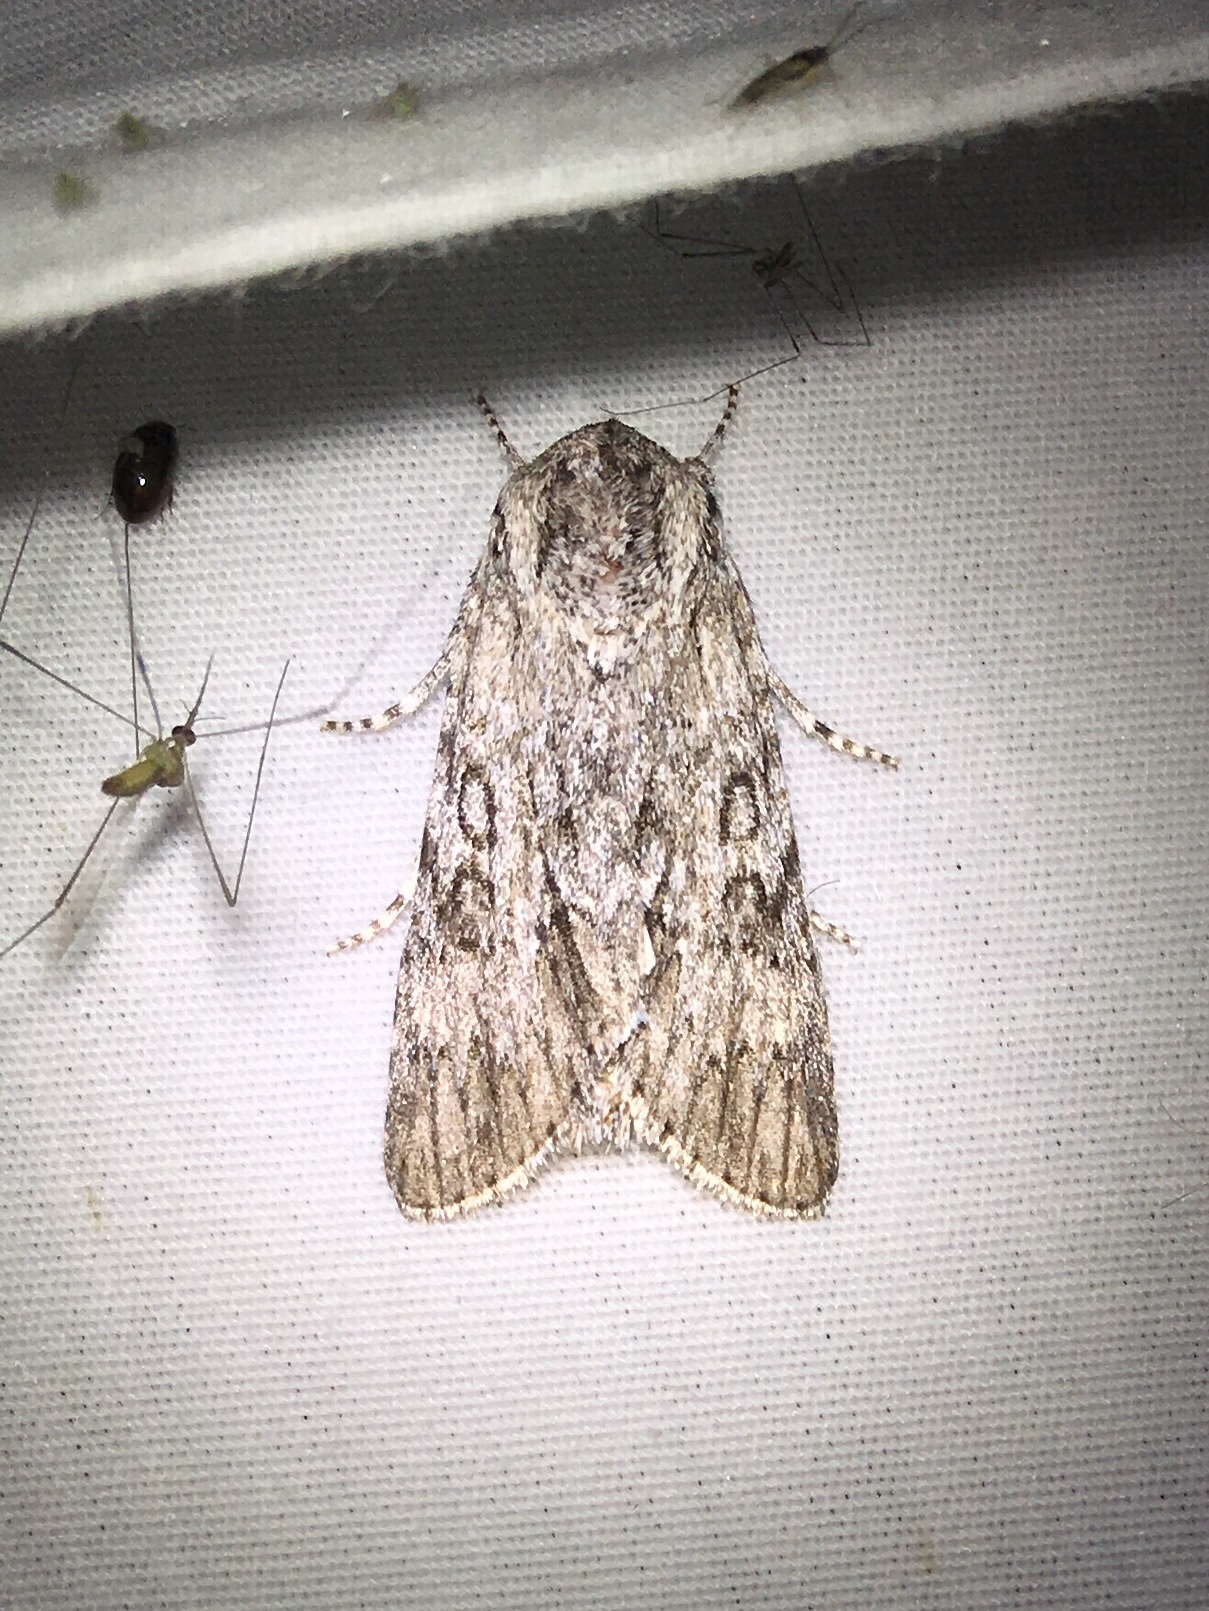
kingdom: Animalia
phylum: Arthropoda
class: Insecta
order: Lepidoptera
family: Noctuidae
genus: Acronicta
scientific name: Acronicta longa
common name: Long-winged dagger
